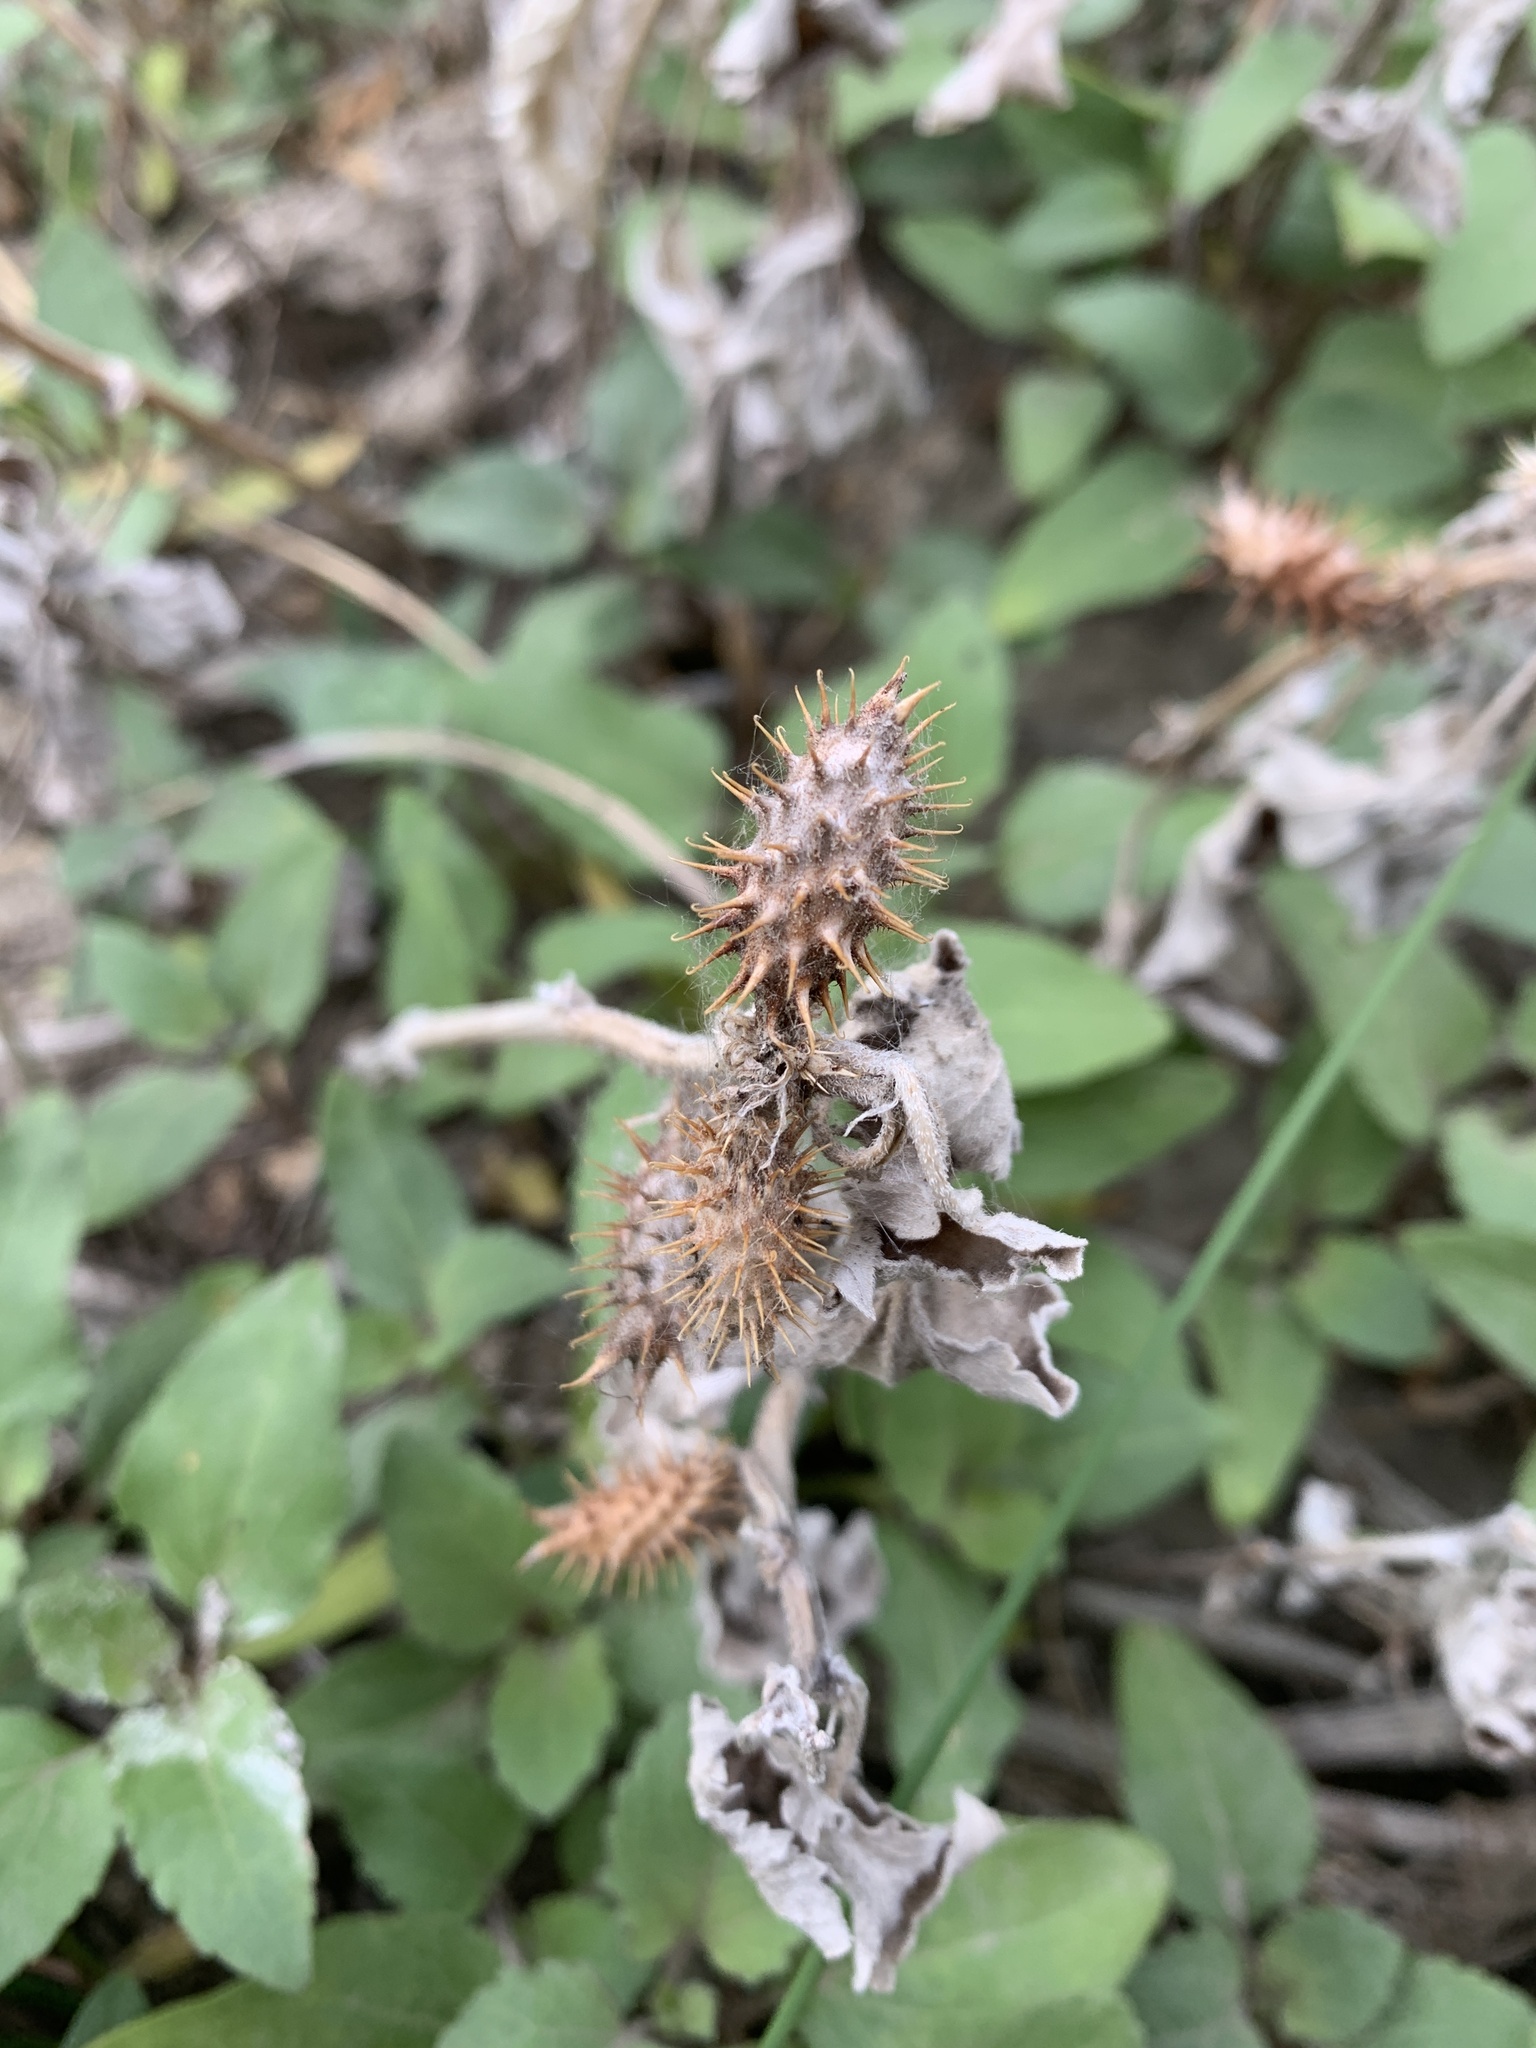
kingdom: Plantae
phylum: Tracheophyta
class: Magnoliopsida
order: Asterales
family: Asteraceae
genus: Xanthium
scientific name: Xanthium strumarium
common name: Rough cocklebur
